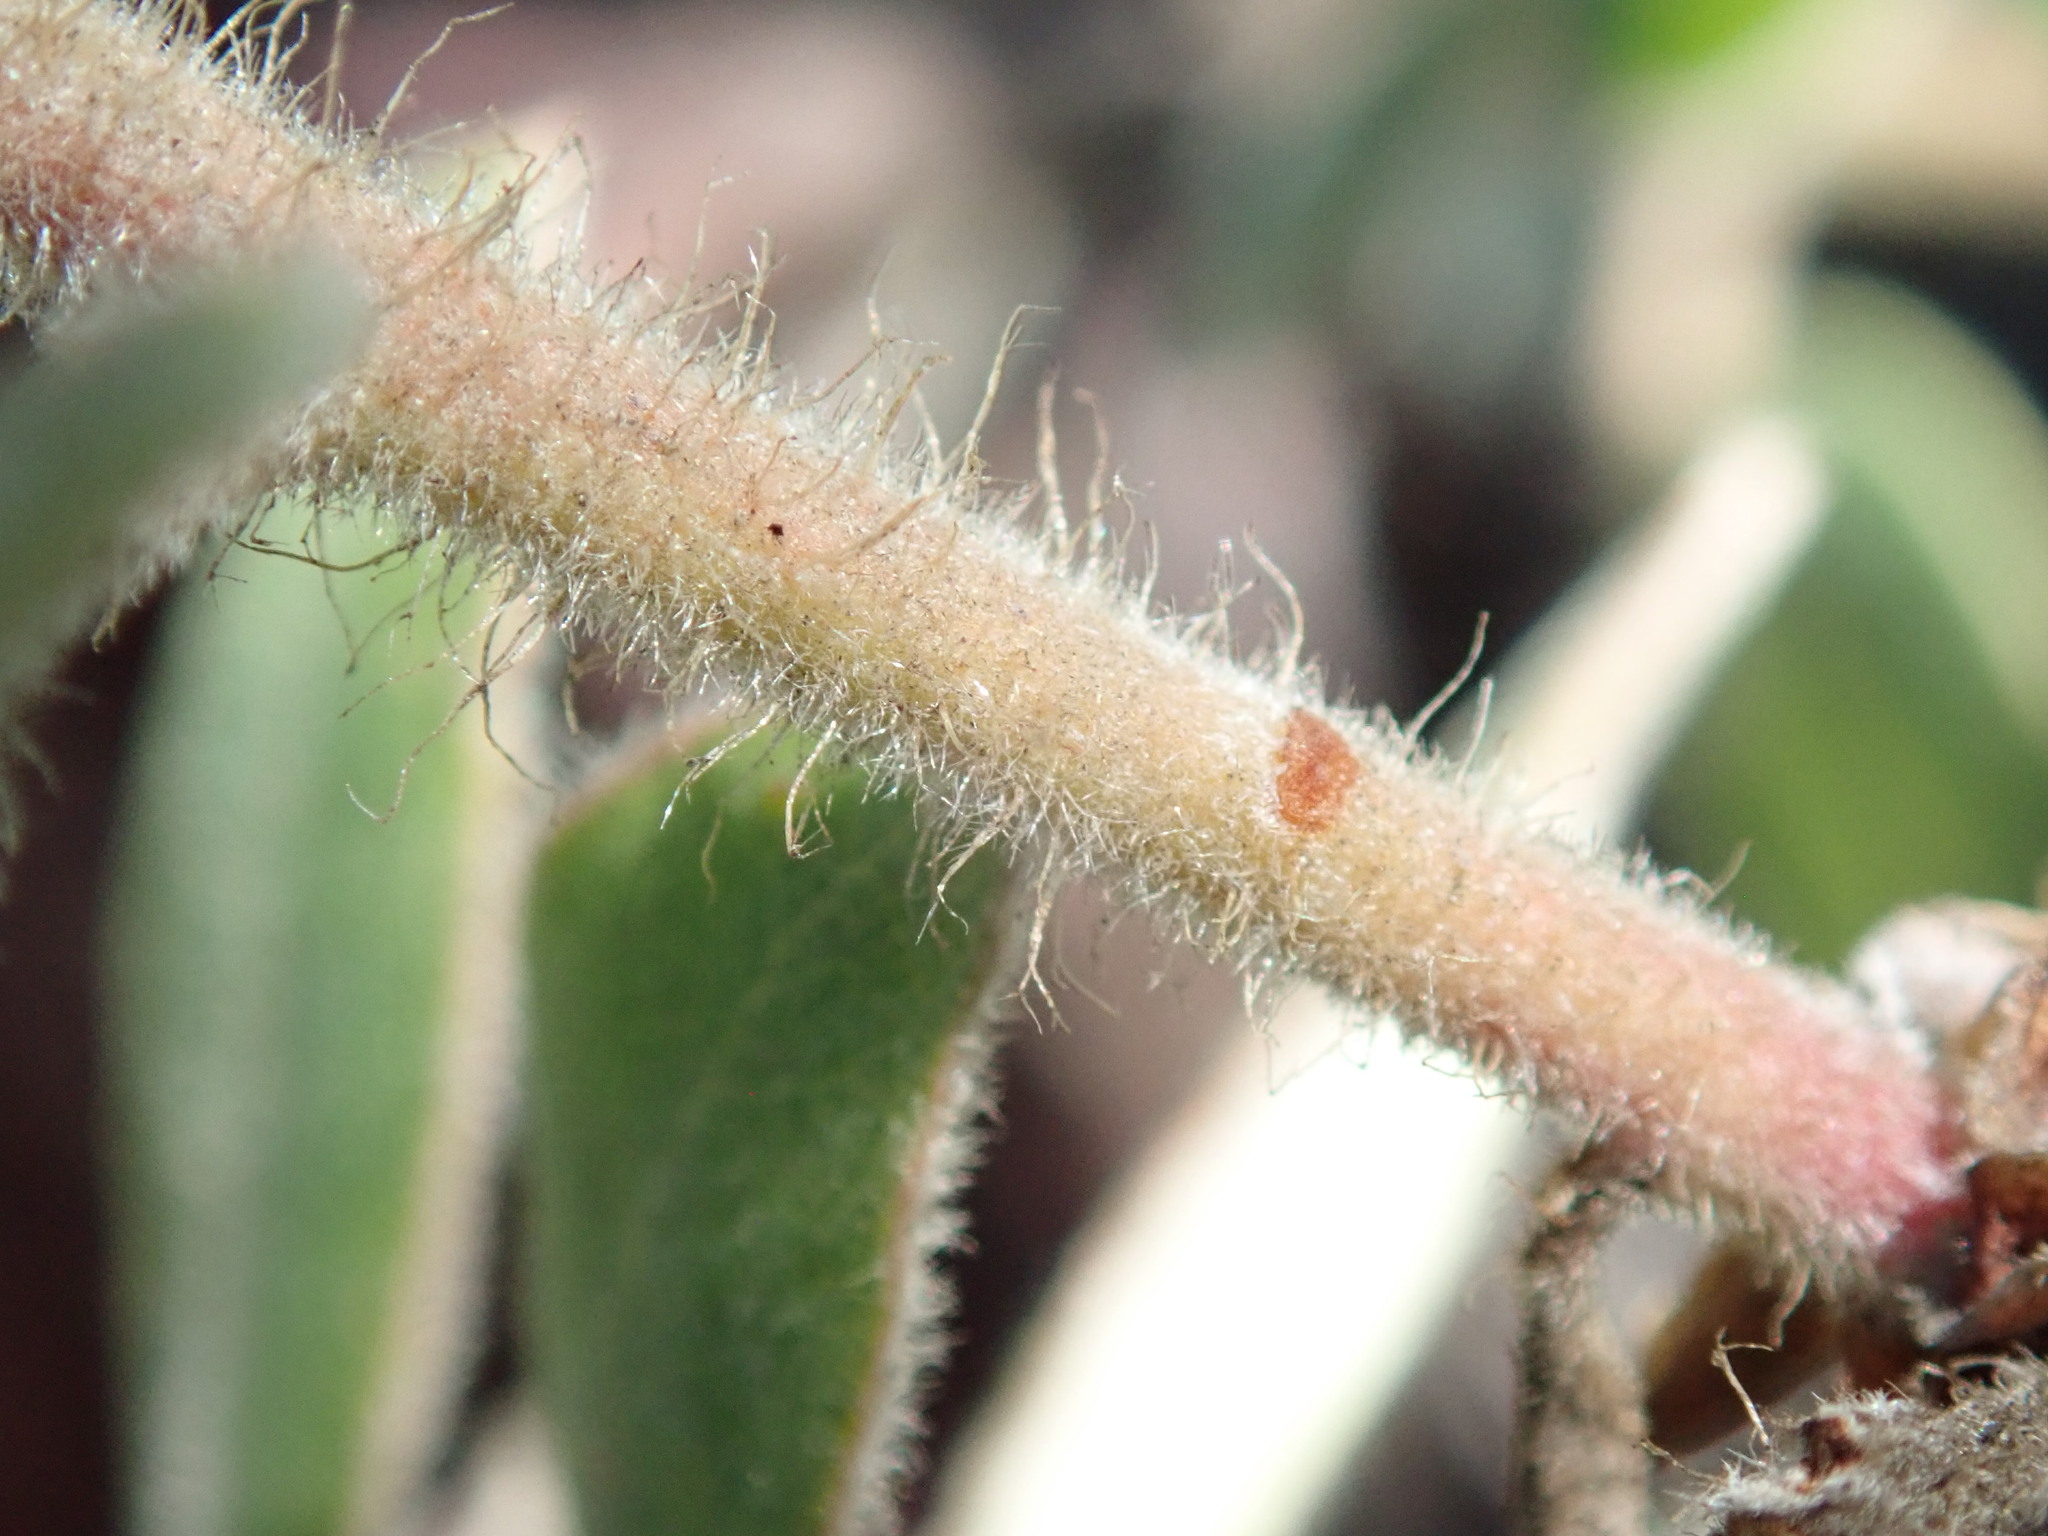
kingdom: Plantae
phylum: Tracheophyta
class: Magnoliopsida
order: Ericales
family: Ericaceae
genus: Arctostaphylos
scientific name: Arctostaphylos tomentosa
